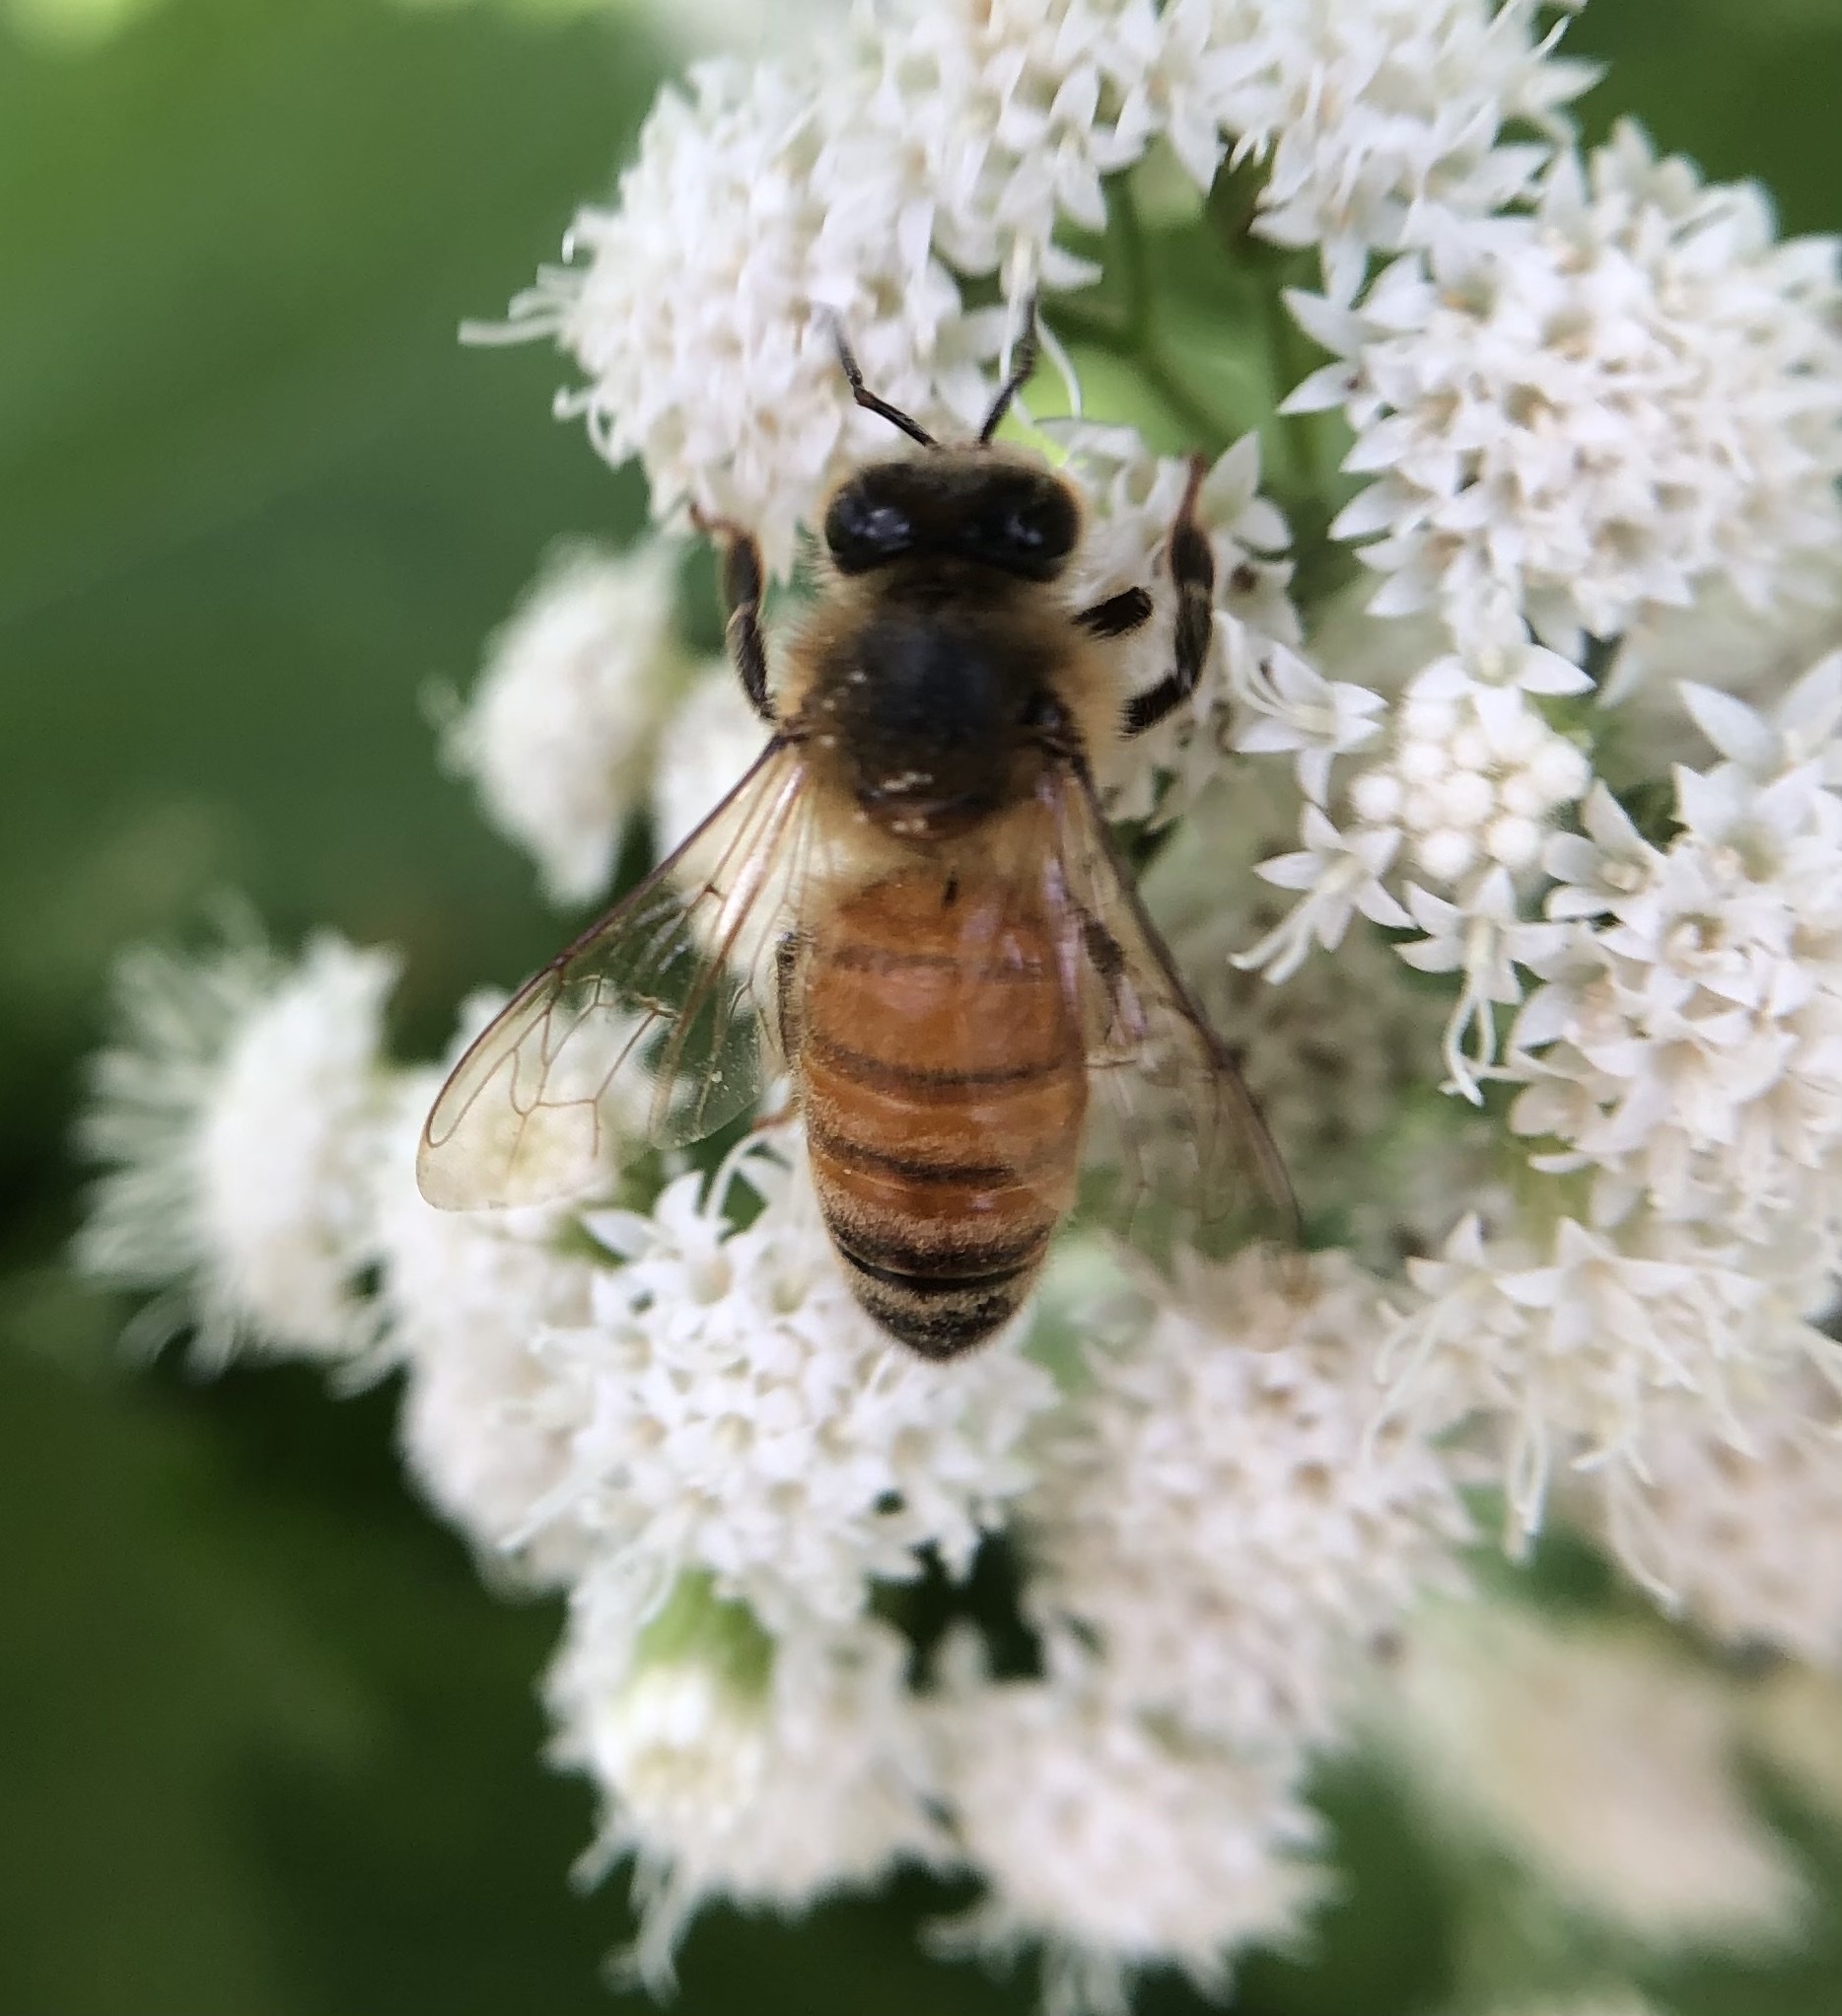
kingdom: Animalia
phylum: Arthropoda
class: Insecta
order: Hymenoptera
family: Apidae
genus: Apis
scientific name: Apis mellifera
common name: Honey bee
